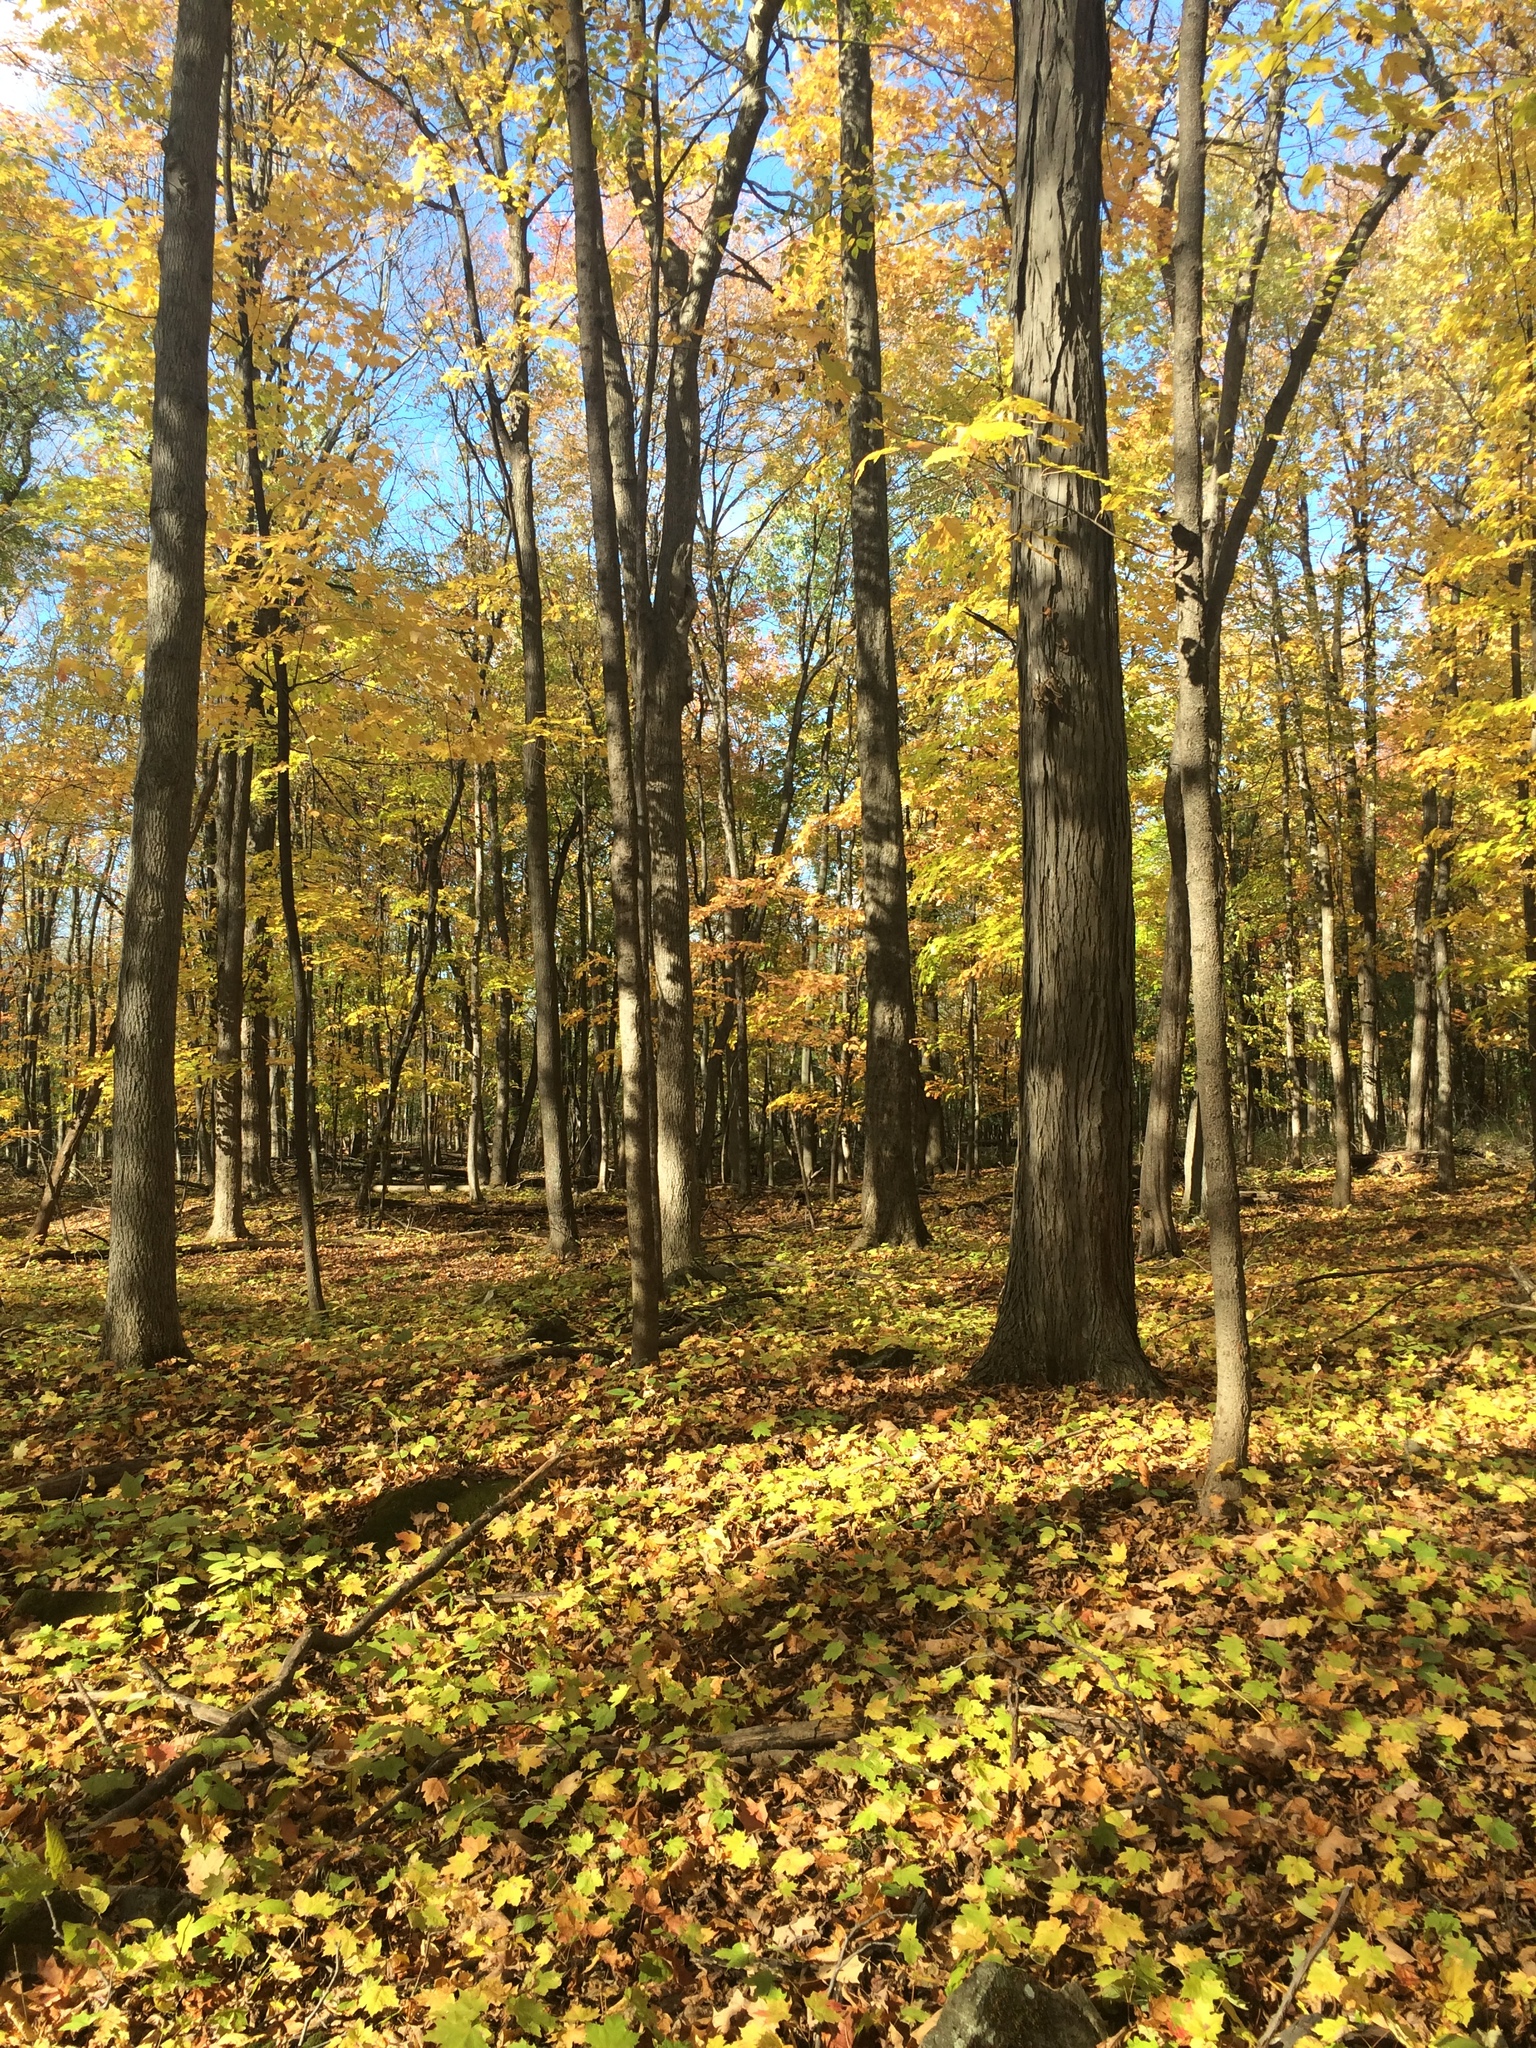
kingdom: Plantae
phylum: Tracheophyta
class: Magnoliopsida
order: Fagales
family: Juglandaceae
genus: Carya
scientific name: Carya cordiformis
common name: Bitternut hickory
